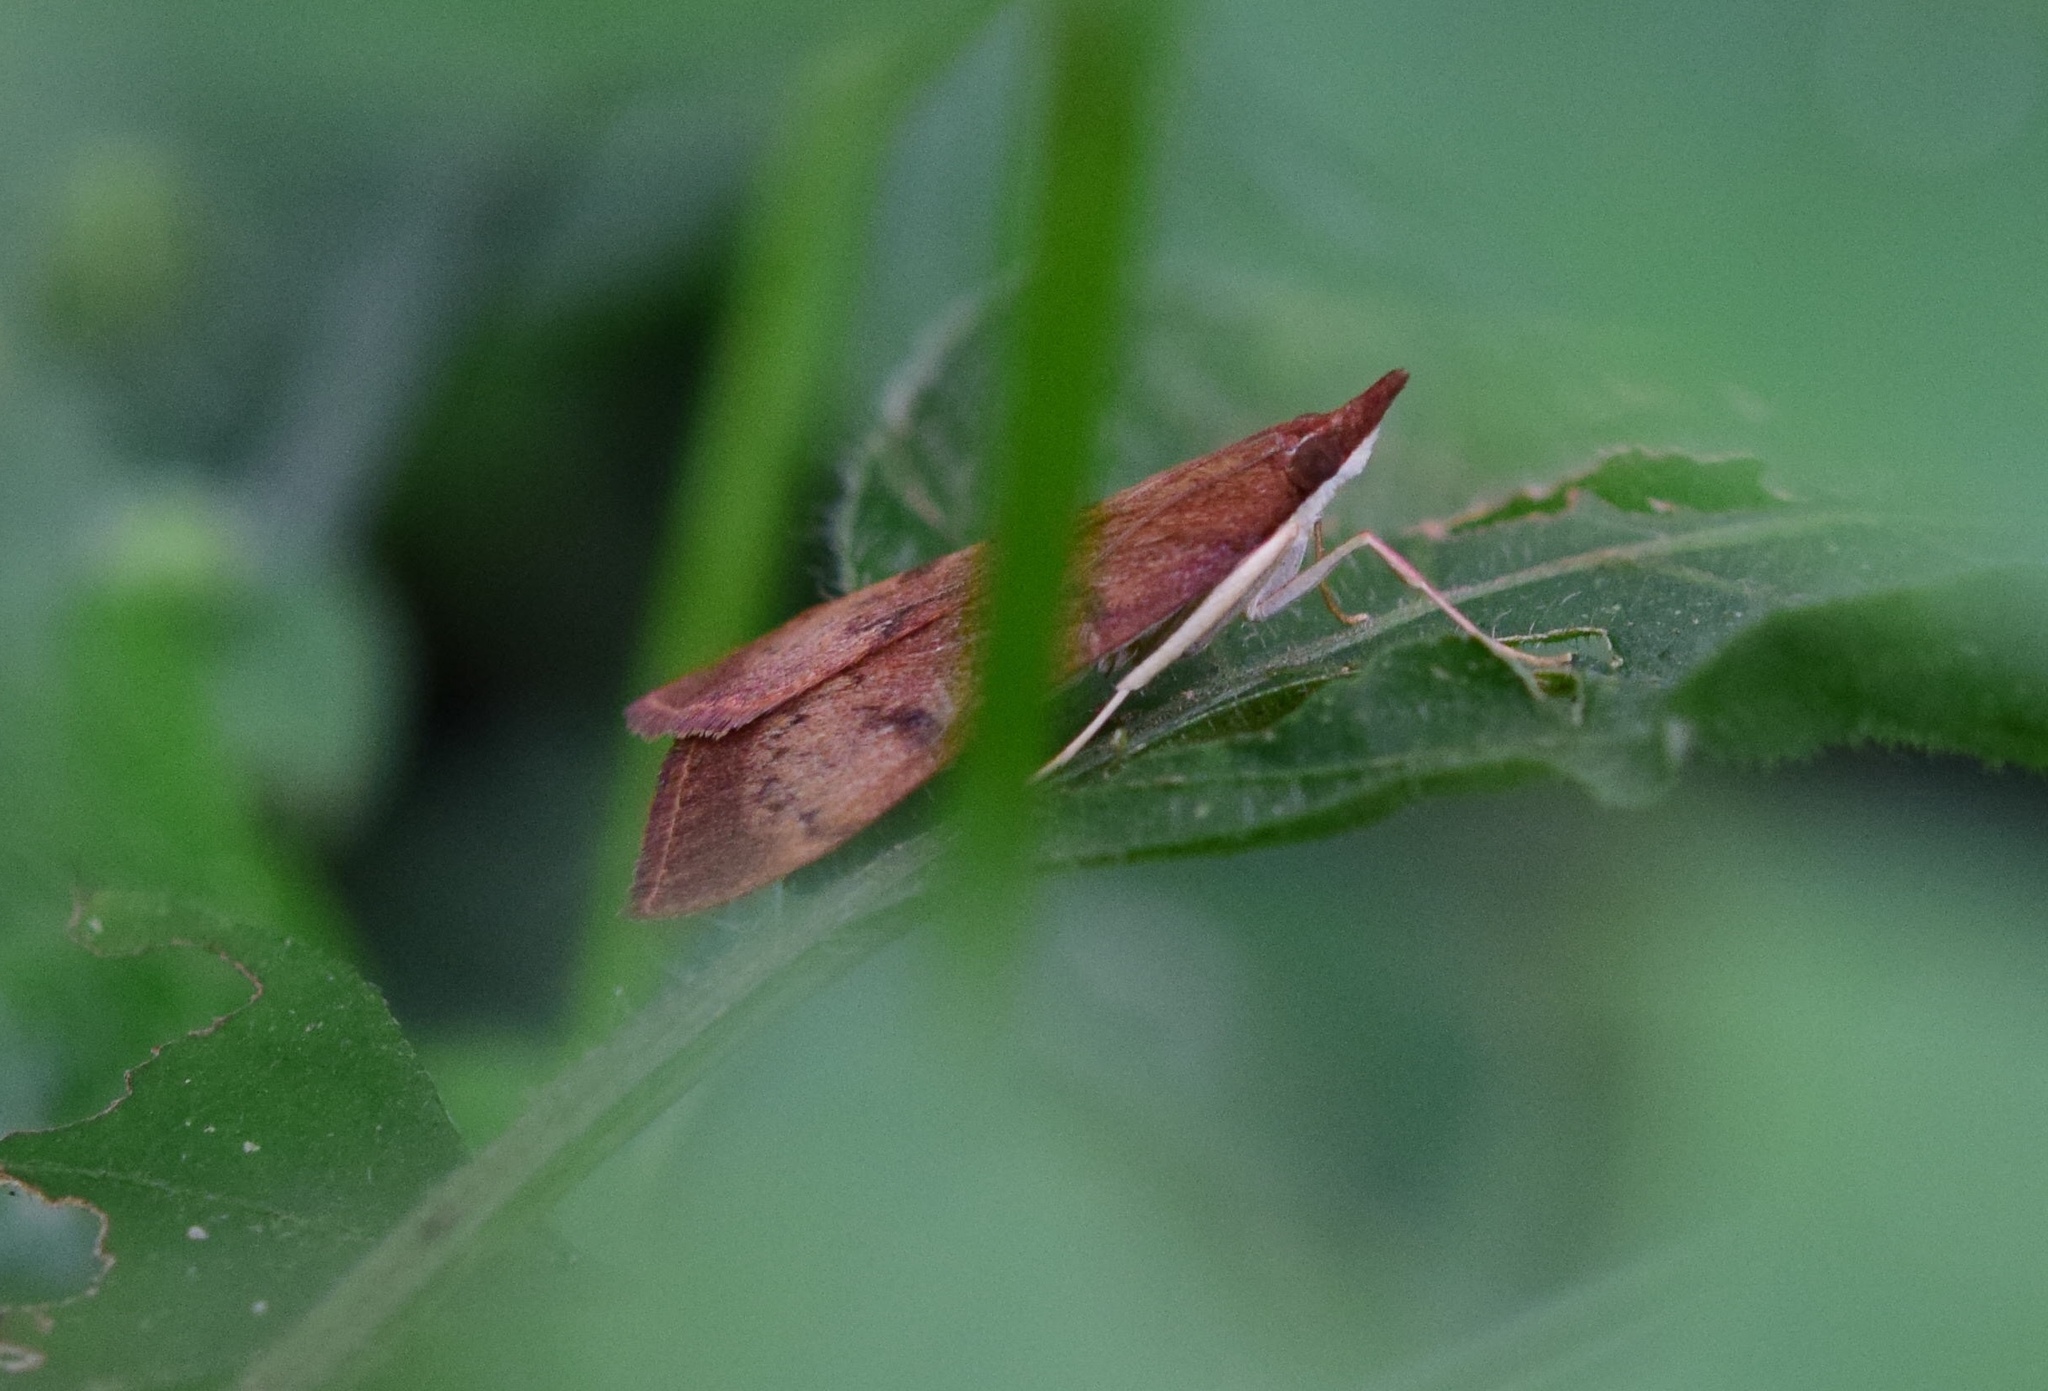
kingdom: Animalia
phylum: Arthropoda
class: Insecta
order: Lepidoptera
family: Crambidae
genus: Uresiphita
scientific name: Uresiphita gilvata
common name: Yellow-underwing pearl
